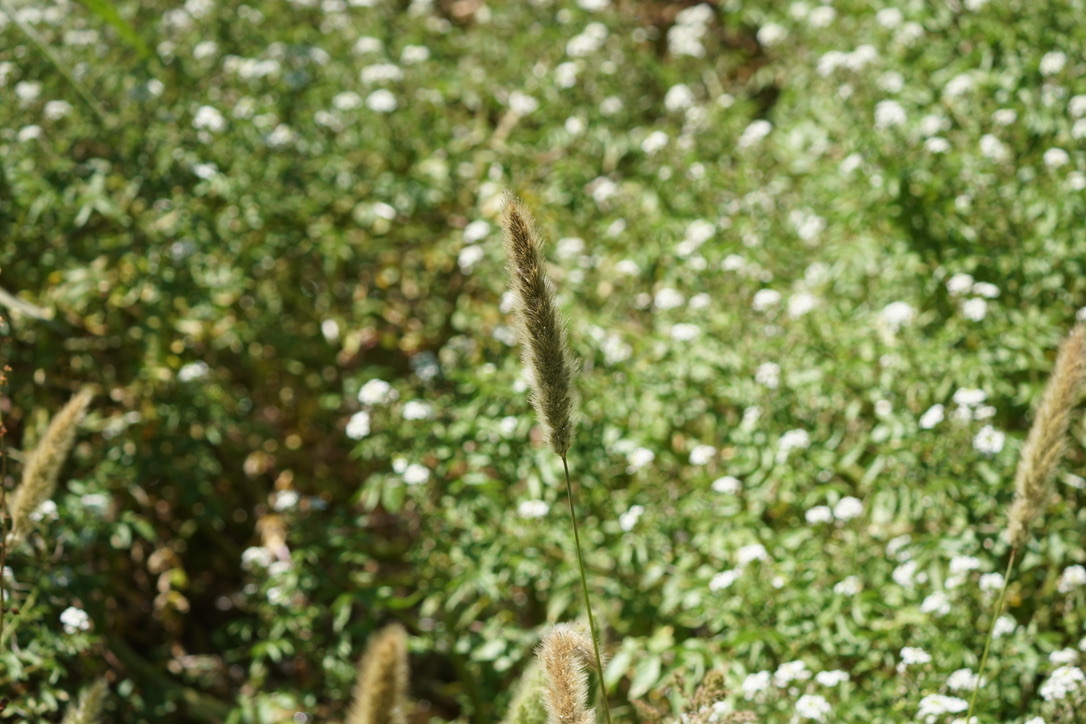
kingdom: Plantae
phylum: Tracheophyta
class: Liliopsida
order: Poales
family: Poaceae
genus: Polypogon
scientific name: Polypogon monspeliensis
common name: Annual rabbitsfoot grass
